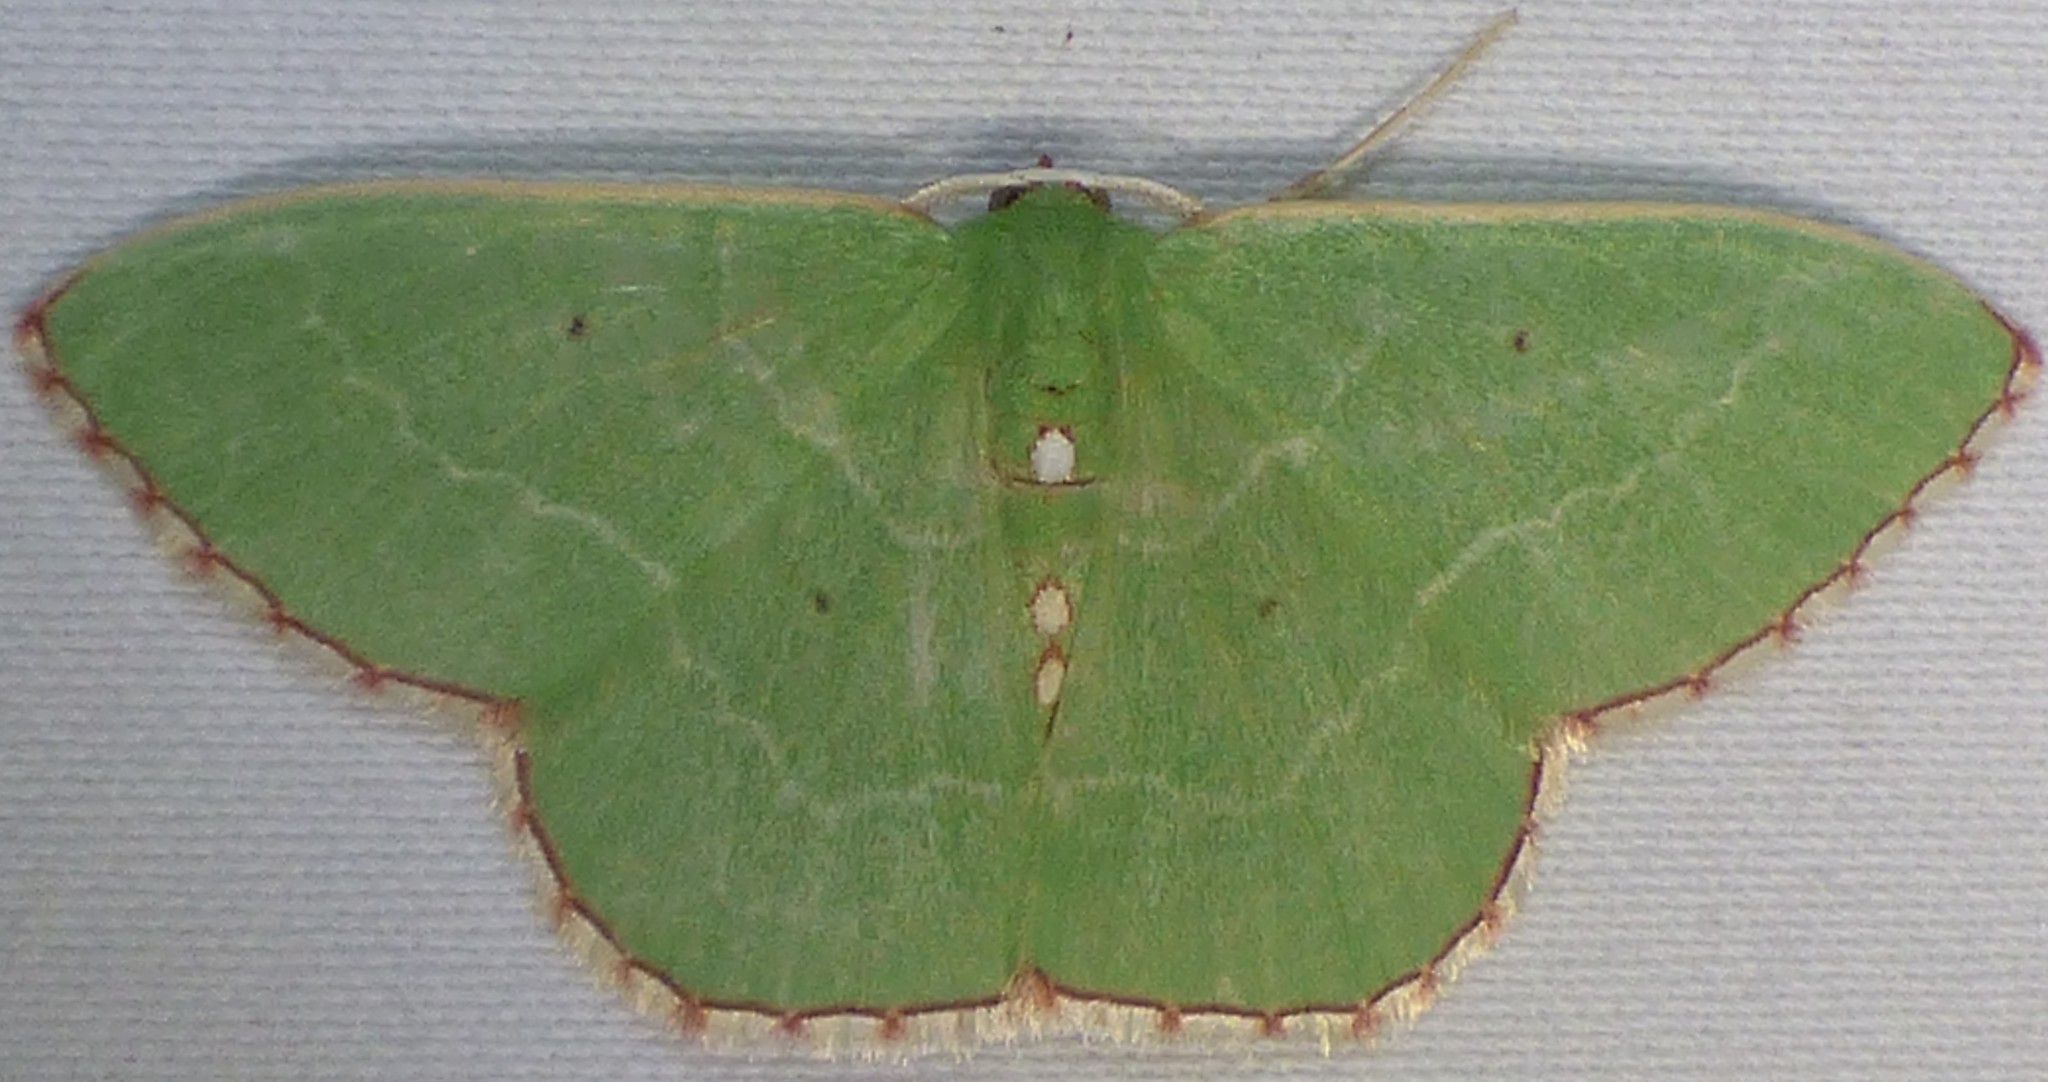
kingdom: Animalia
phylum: Arthropoda
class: Insecta
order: Lepidoptera
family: Geometridae
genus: Nemoria
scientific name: Nemoria lixaria
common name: Red-bordered emerald
